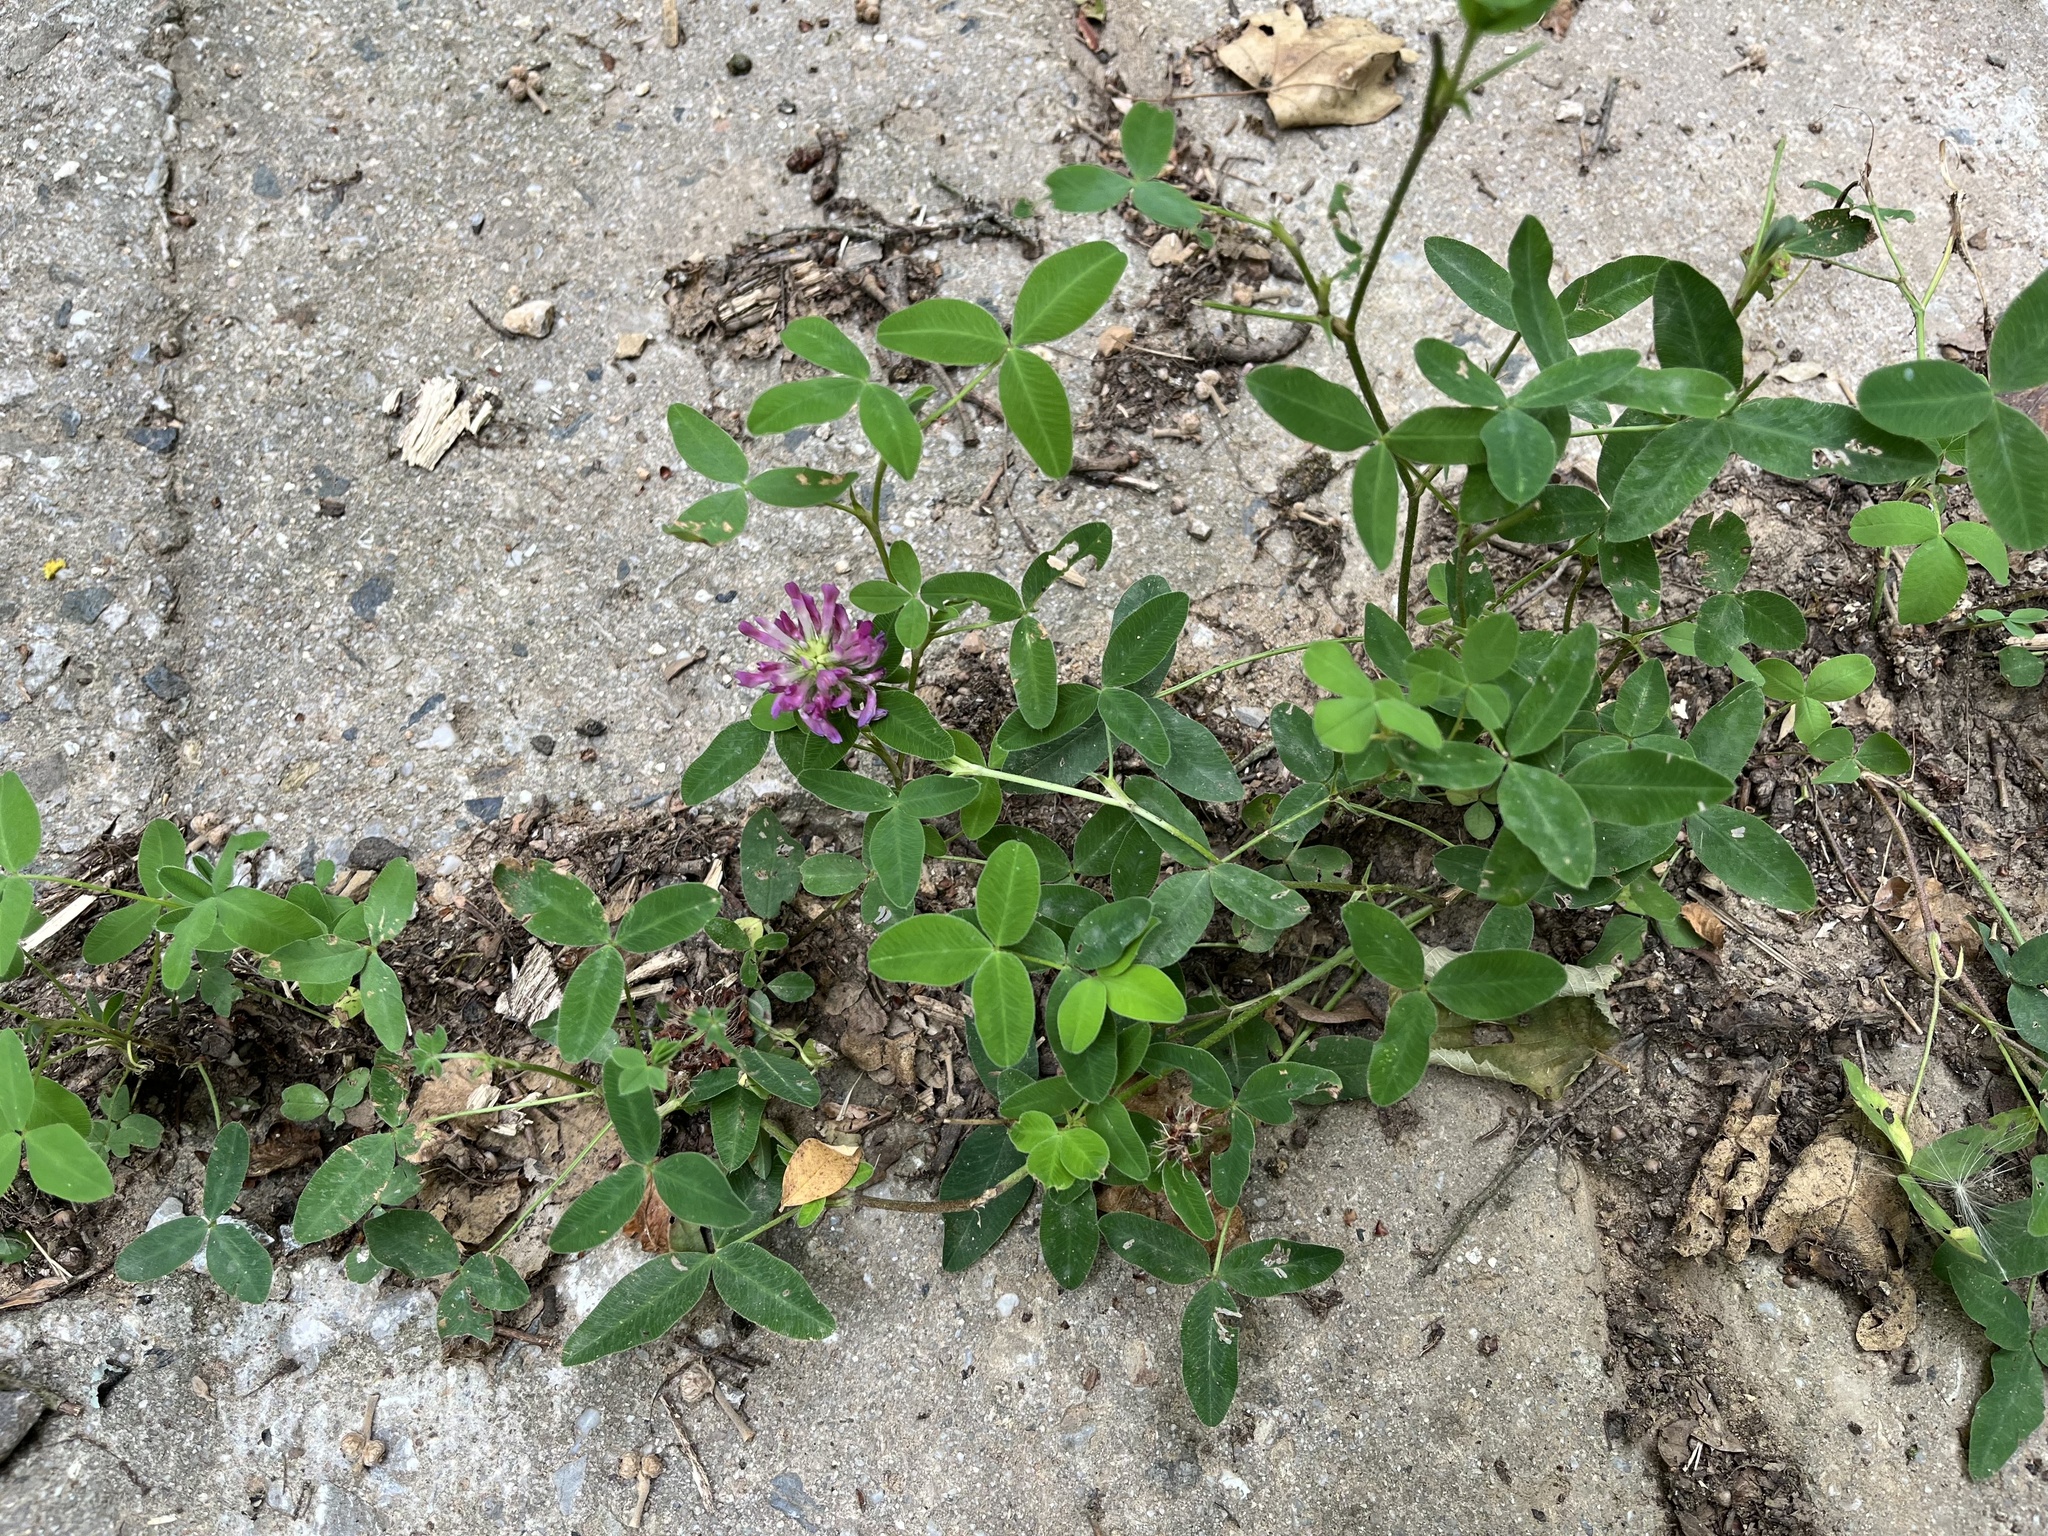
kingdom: Plantae
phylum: Tracheophyta
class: Magnoliopsida
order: Fabales
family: Fabaceae
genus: Trifolium
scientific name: Trifolium medium
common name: Zigzag clover
